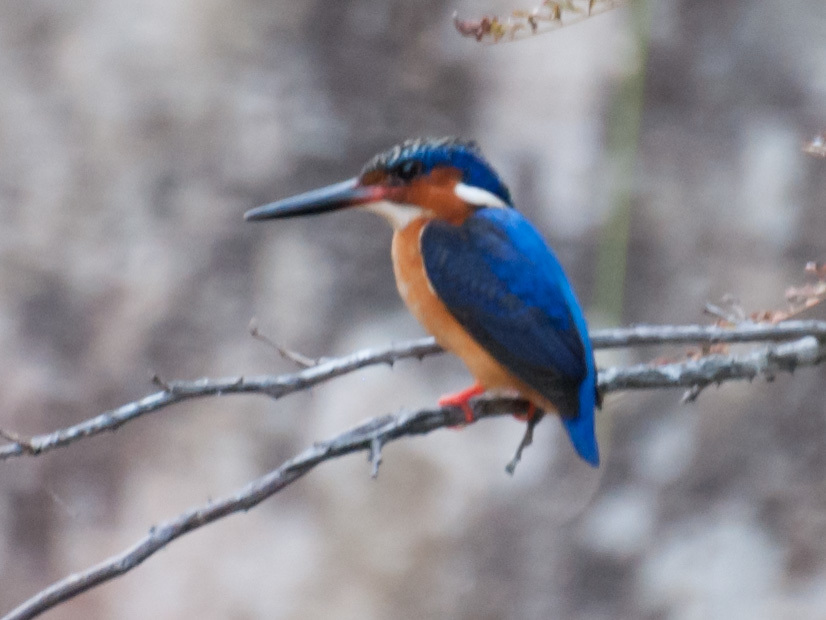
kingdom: Animalia
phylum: Chordata
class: Aves
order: Coraciiformes
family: Alcedinidae
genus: Corythornis
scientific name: Corythornis vintsioides
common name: Malagasy kingfisher
